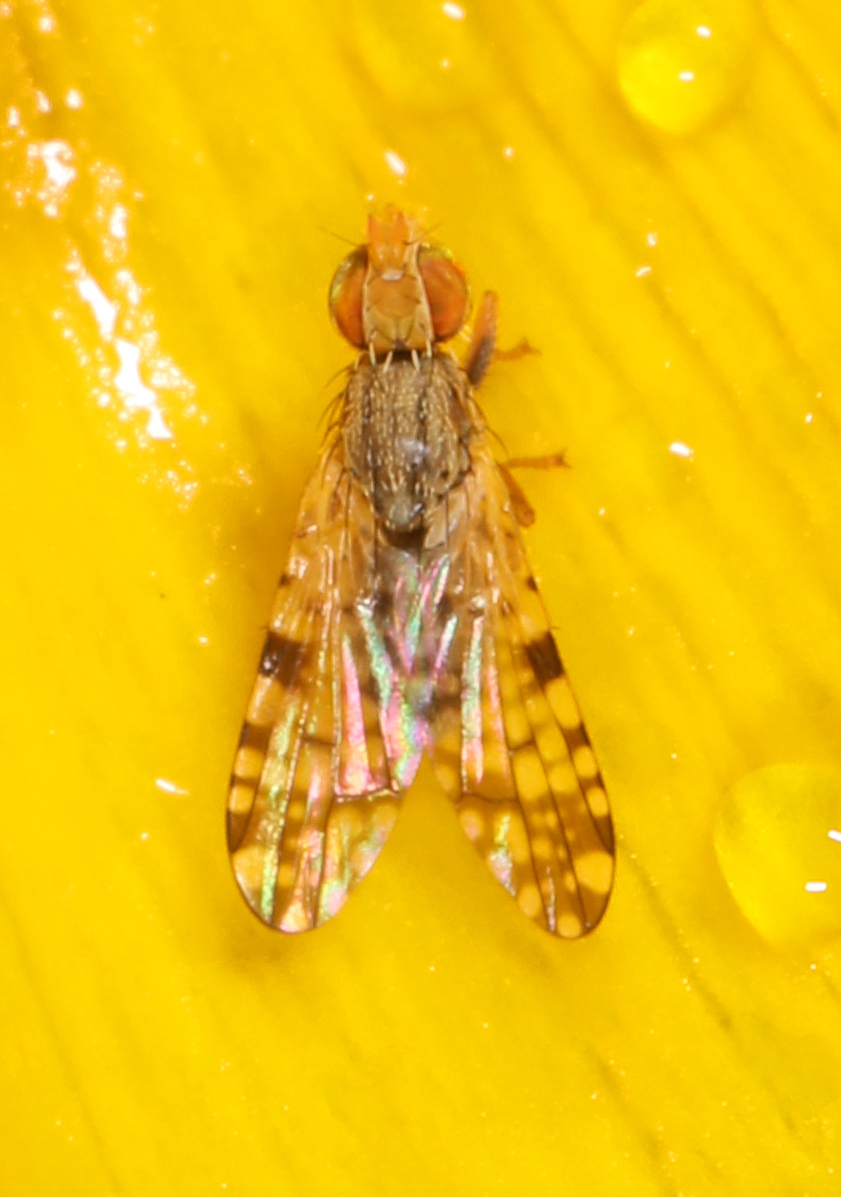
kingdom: Animalia
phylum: Arthropoda
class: Insecta
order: Diptera
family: Tephritidae
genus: Dioxyna
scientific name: Dioxyna picciola
